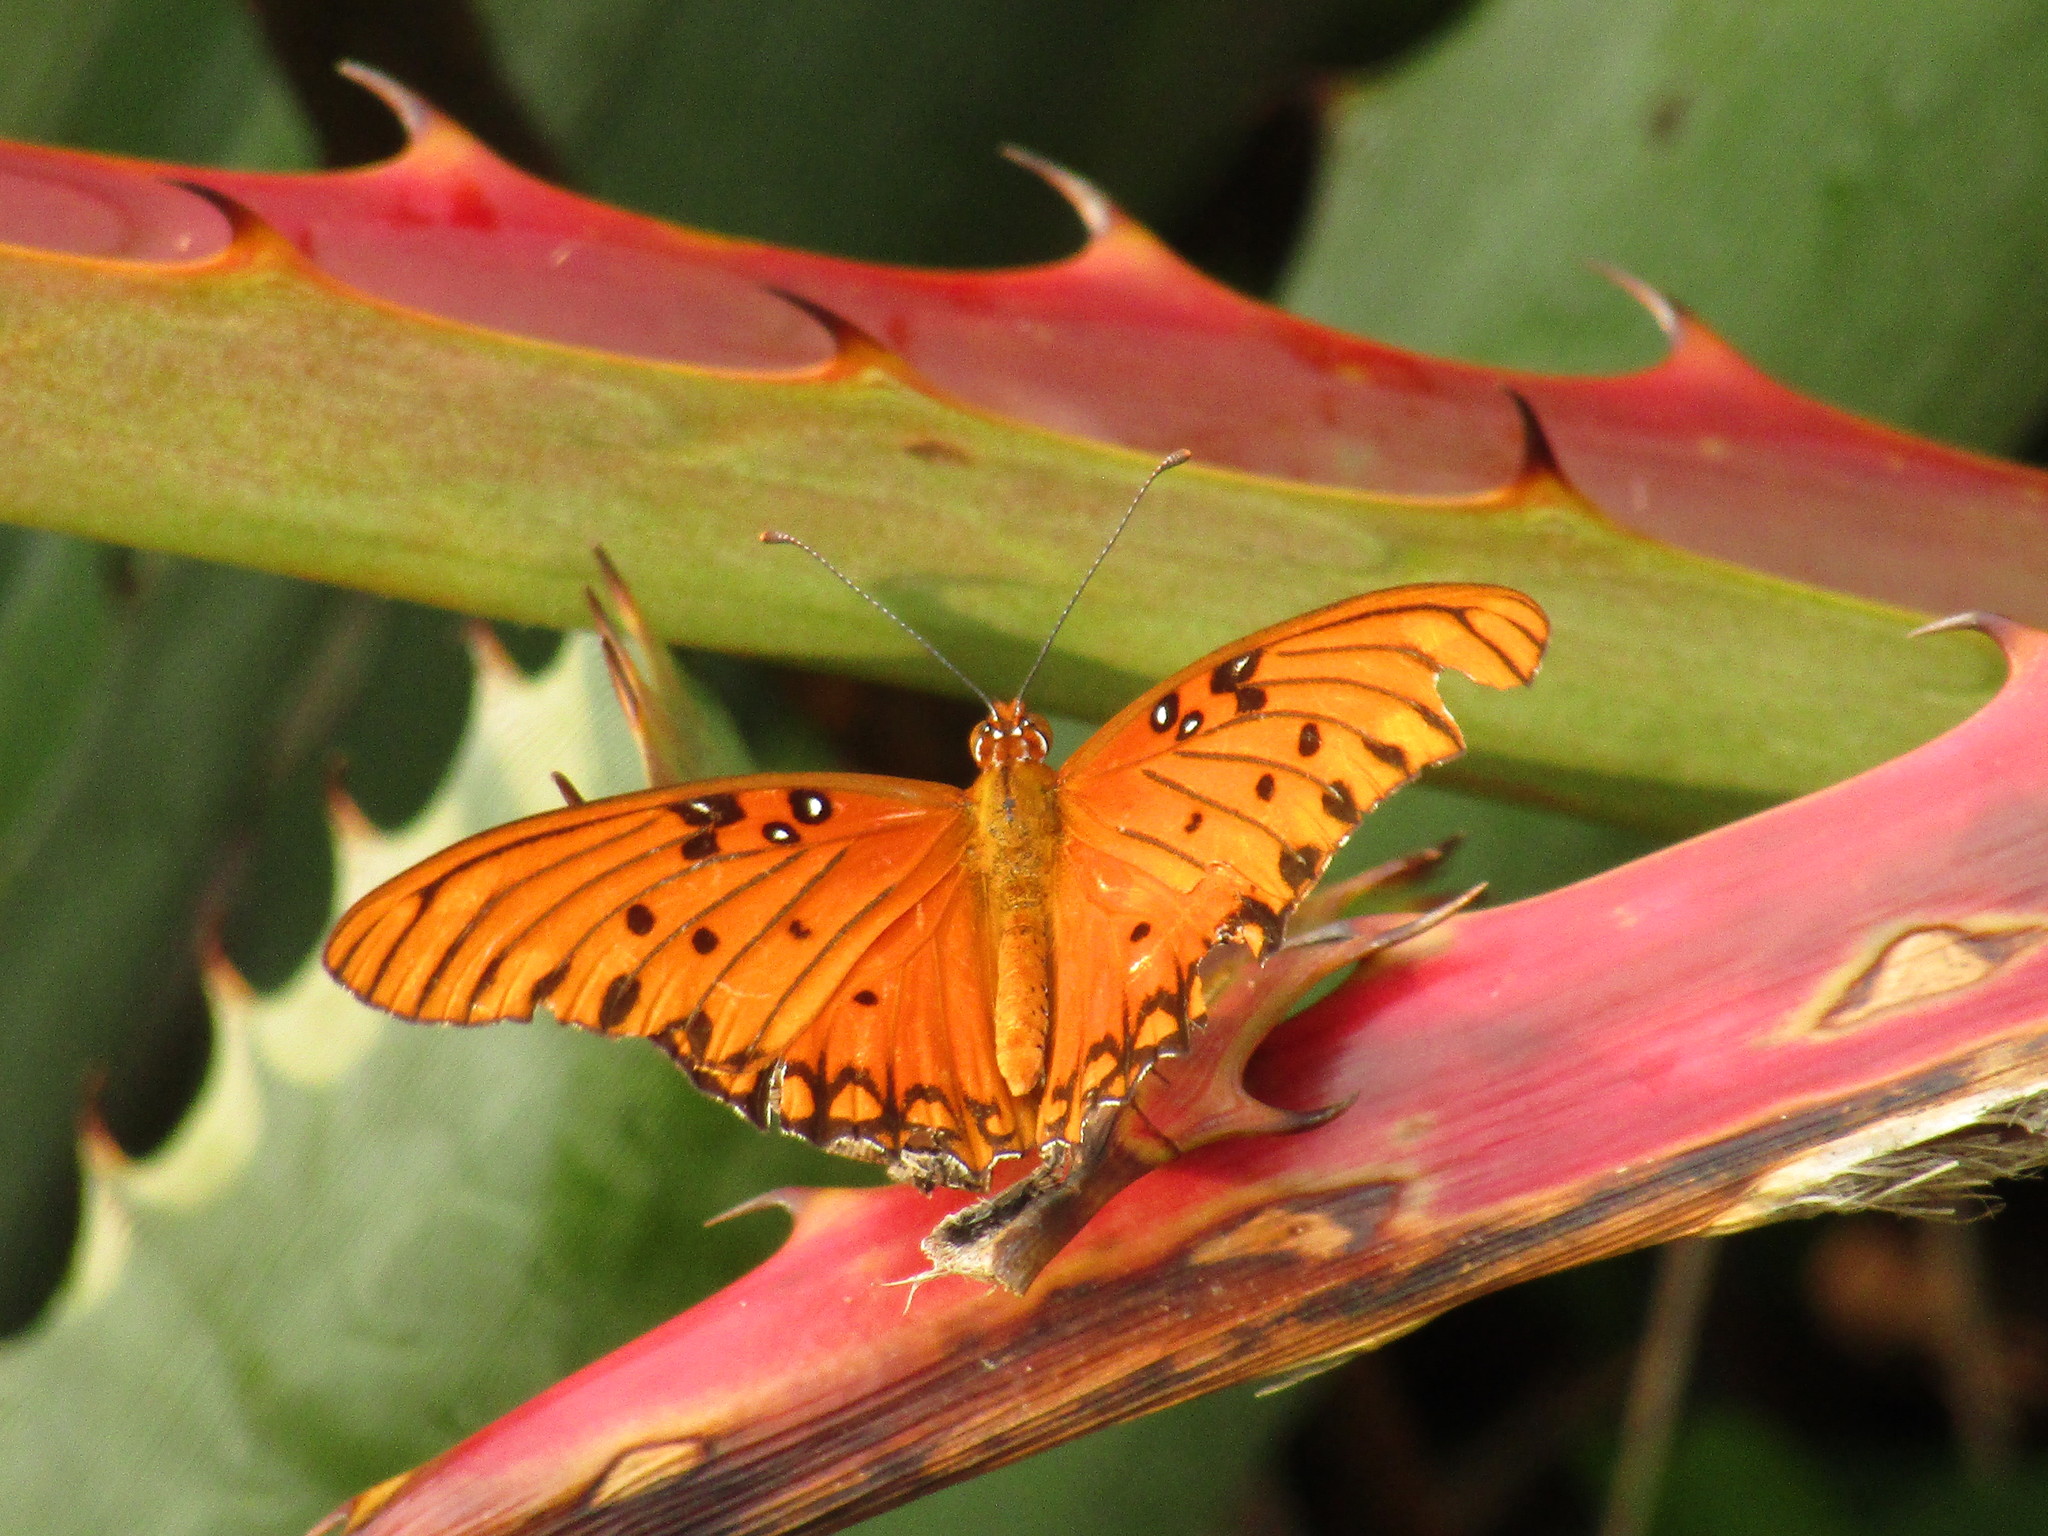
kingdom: Animalia
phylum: Arthropoda
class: Insecta
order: Lepidoptera
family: Nymphalidae
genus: Dione
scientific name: Dione vanillae
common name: Gulf fritillary
